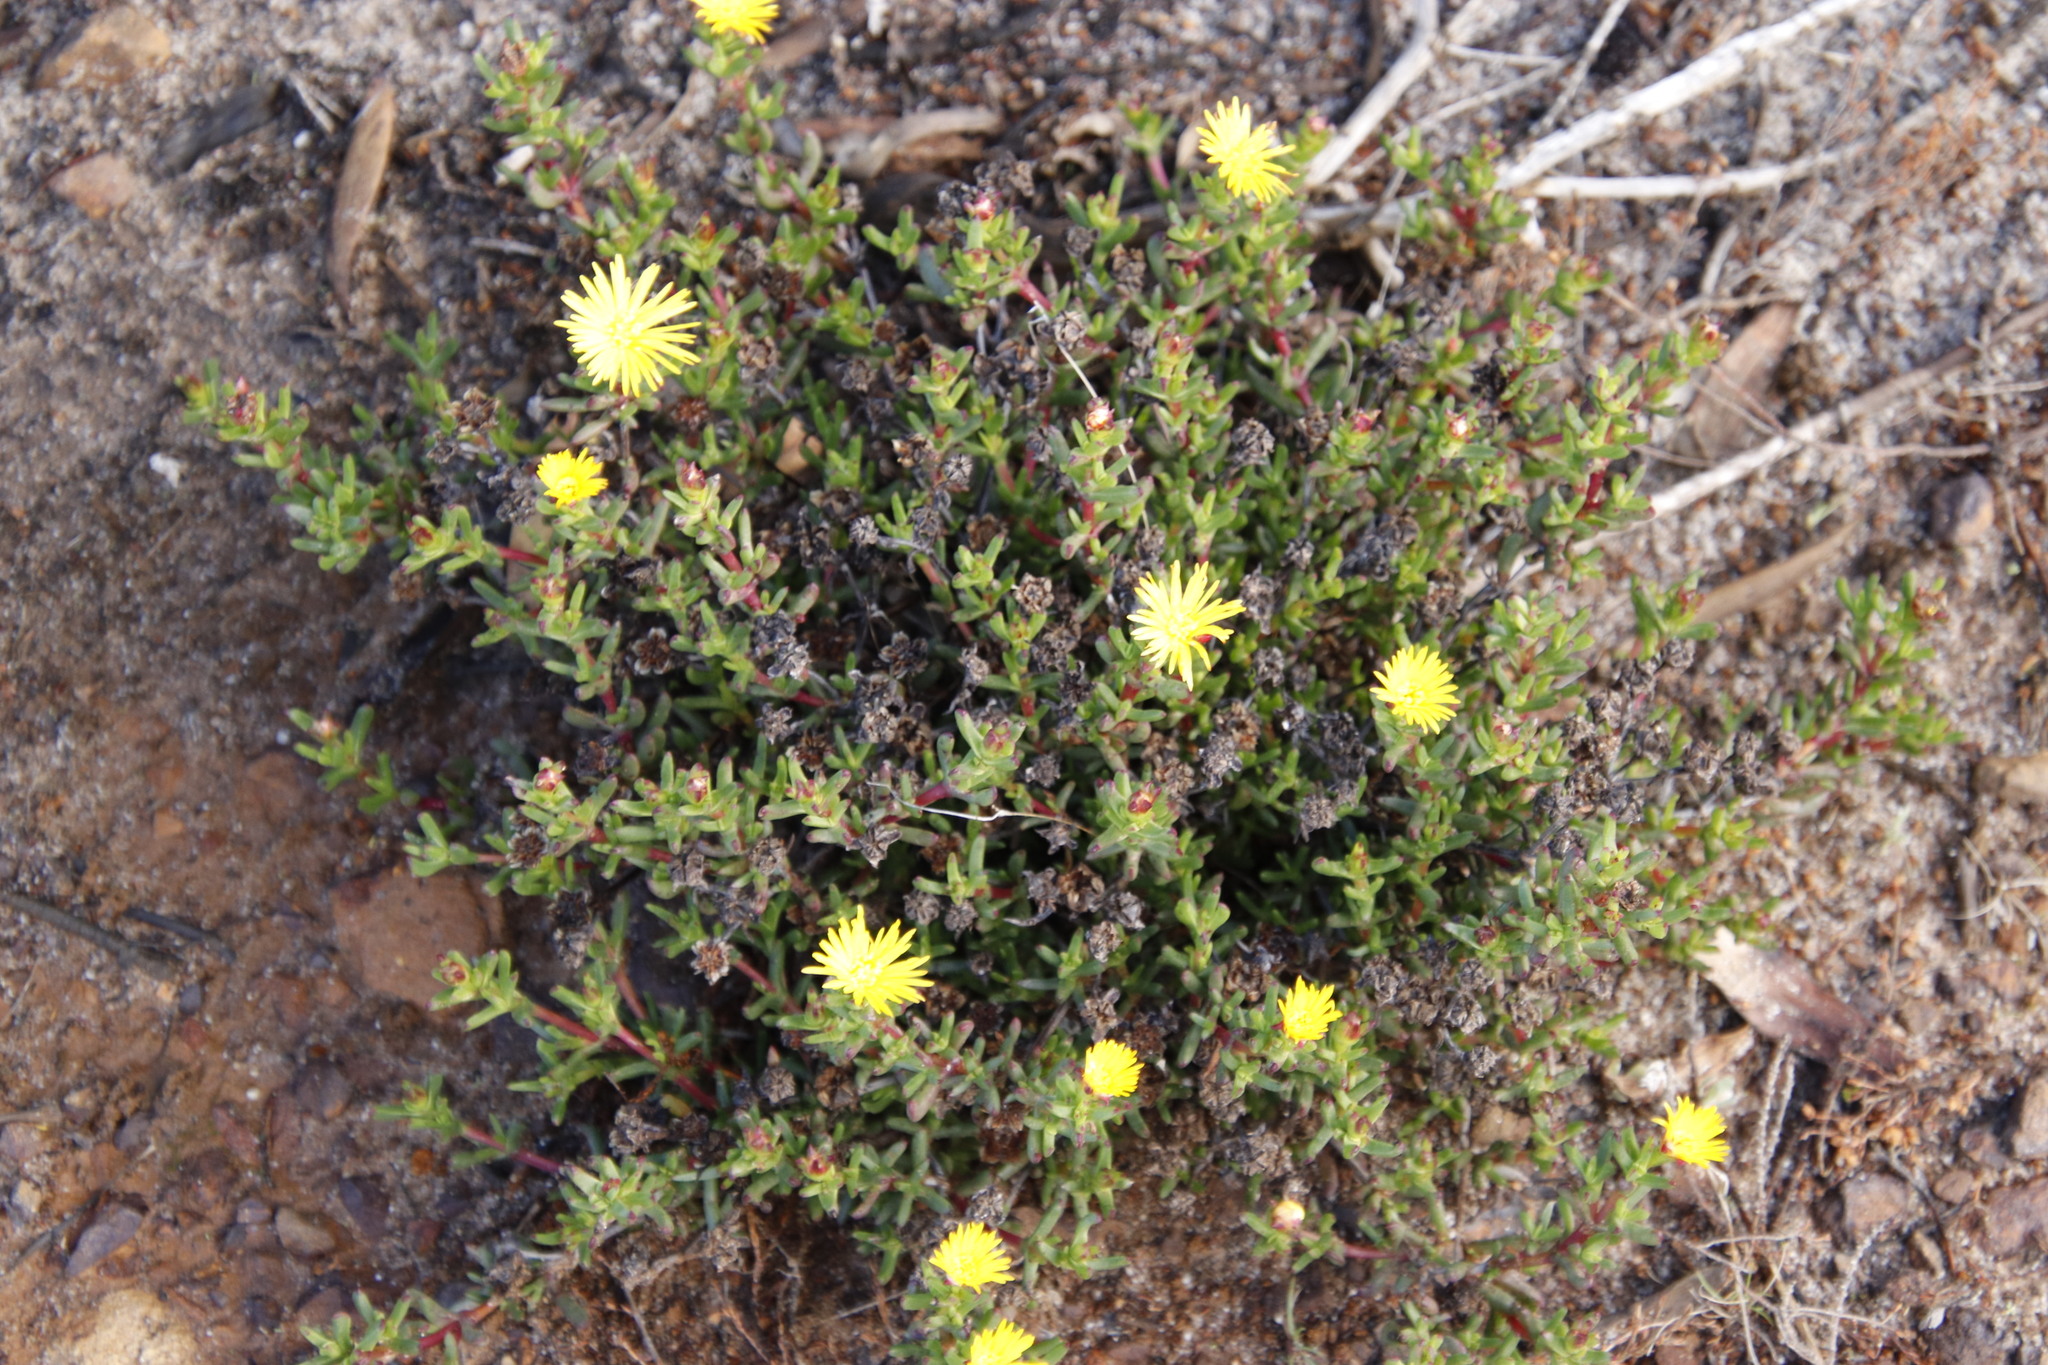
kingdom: Plantae
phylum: Tracheophyta
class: Magnoliopsida
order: Caryophyllales
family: Aizoaceae
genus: Lampranthus
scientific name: Lampranthus promontorii
